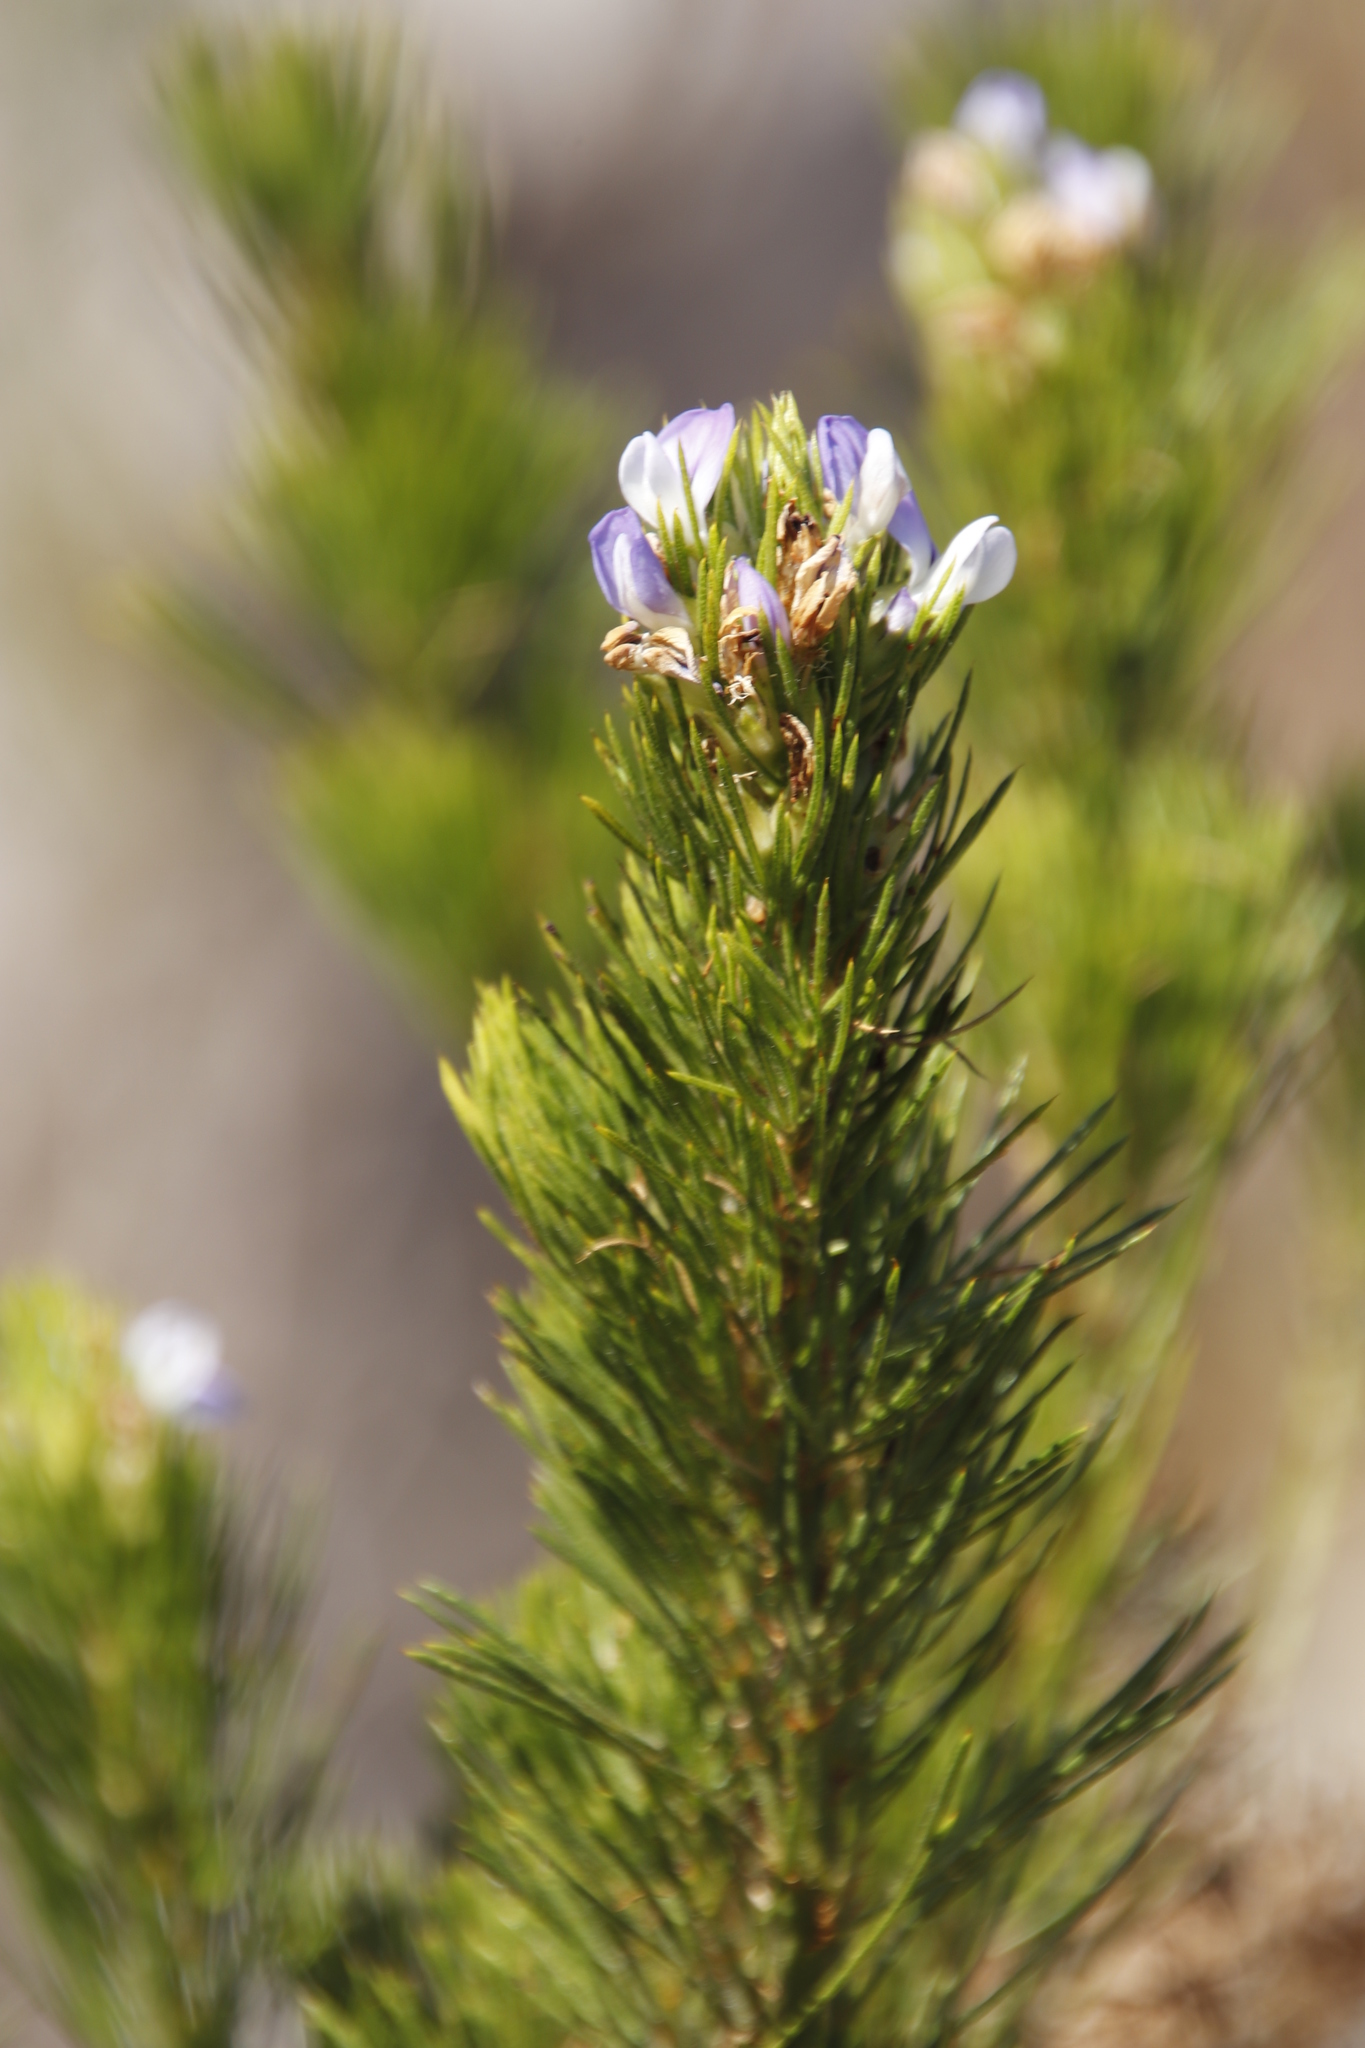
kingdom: Plantae
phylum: Tracheophyta
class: Magnoliopsida
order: Fabales
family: Fabaceae
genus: Psoralea
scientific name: Psoralea pinnata
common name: African scurfpea
